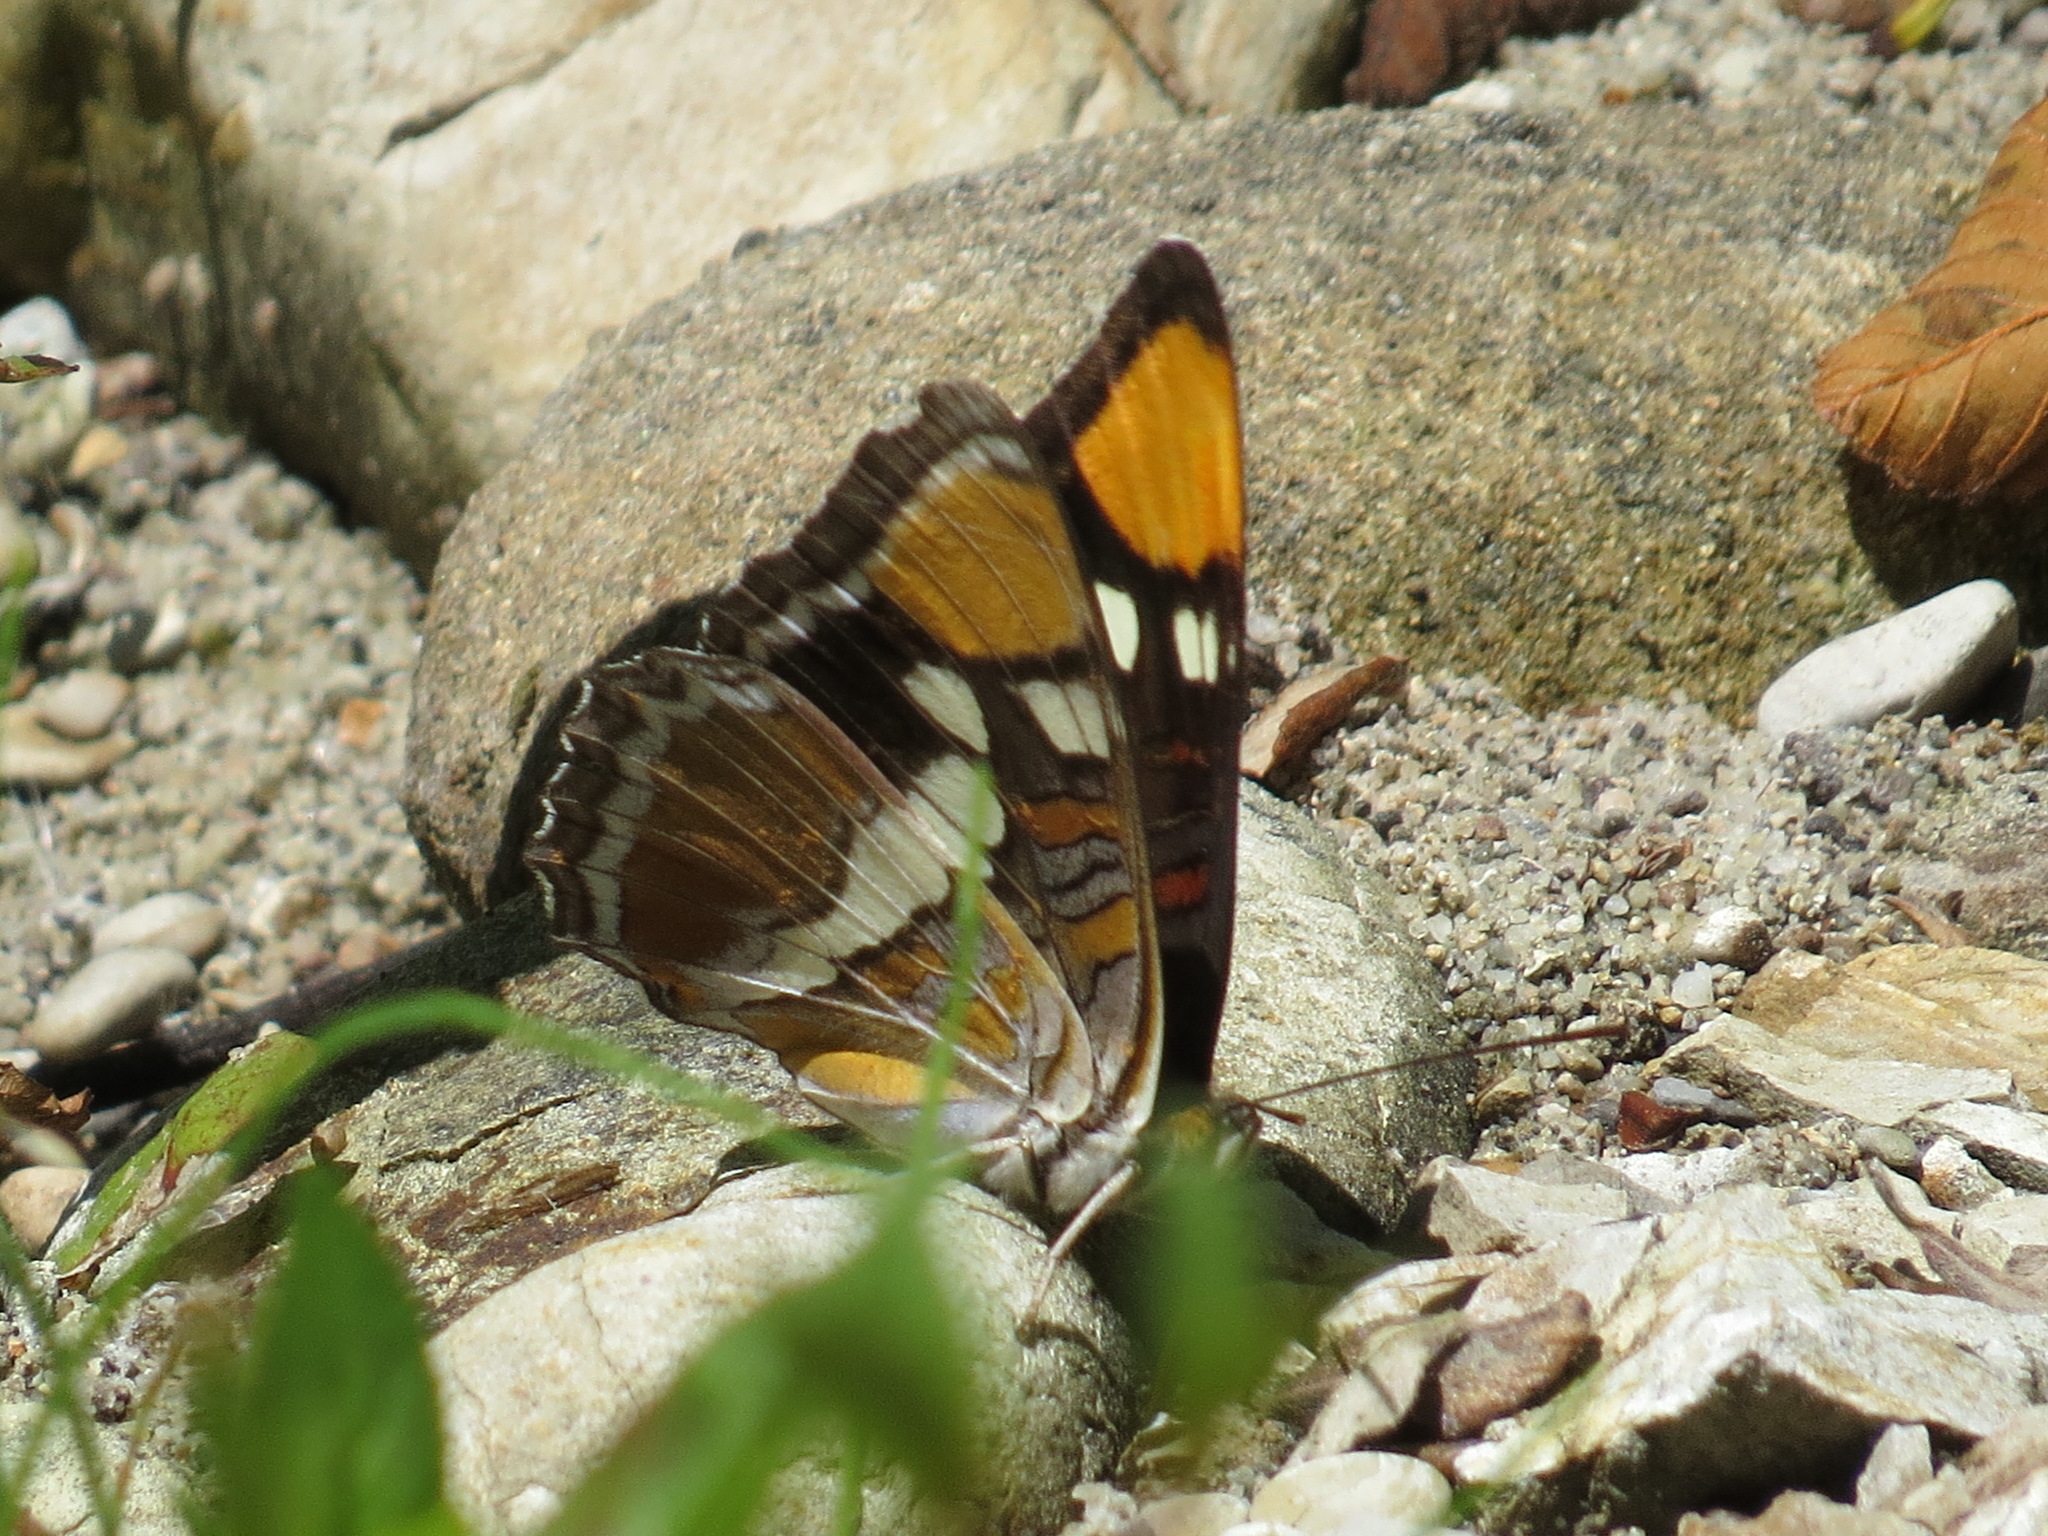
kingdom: Animalia
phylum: Arthropoda
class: Insecta
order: Lepidoptera
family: Nymphalidae
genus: Limenitis
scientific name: Limenitis bredowii
